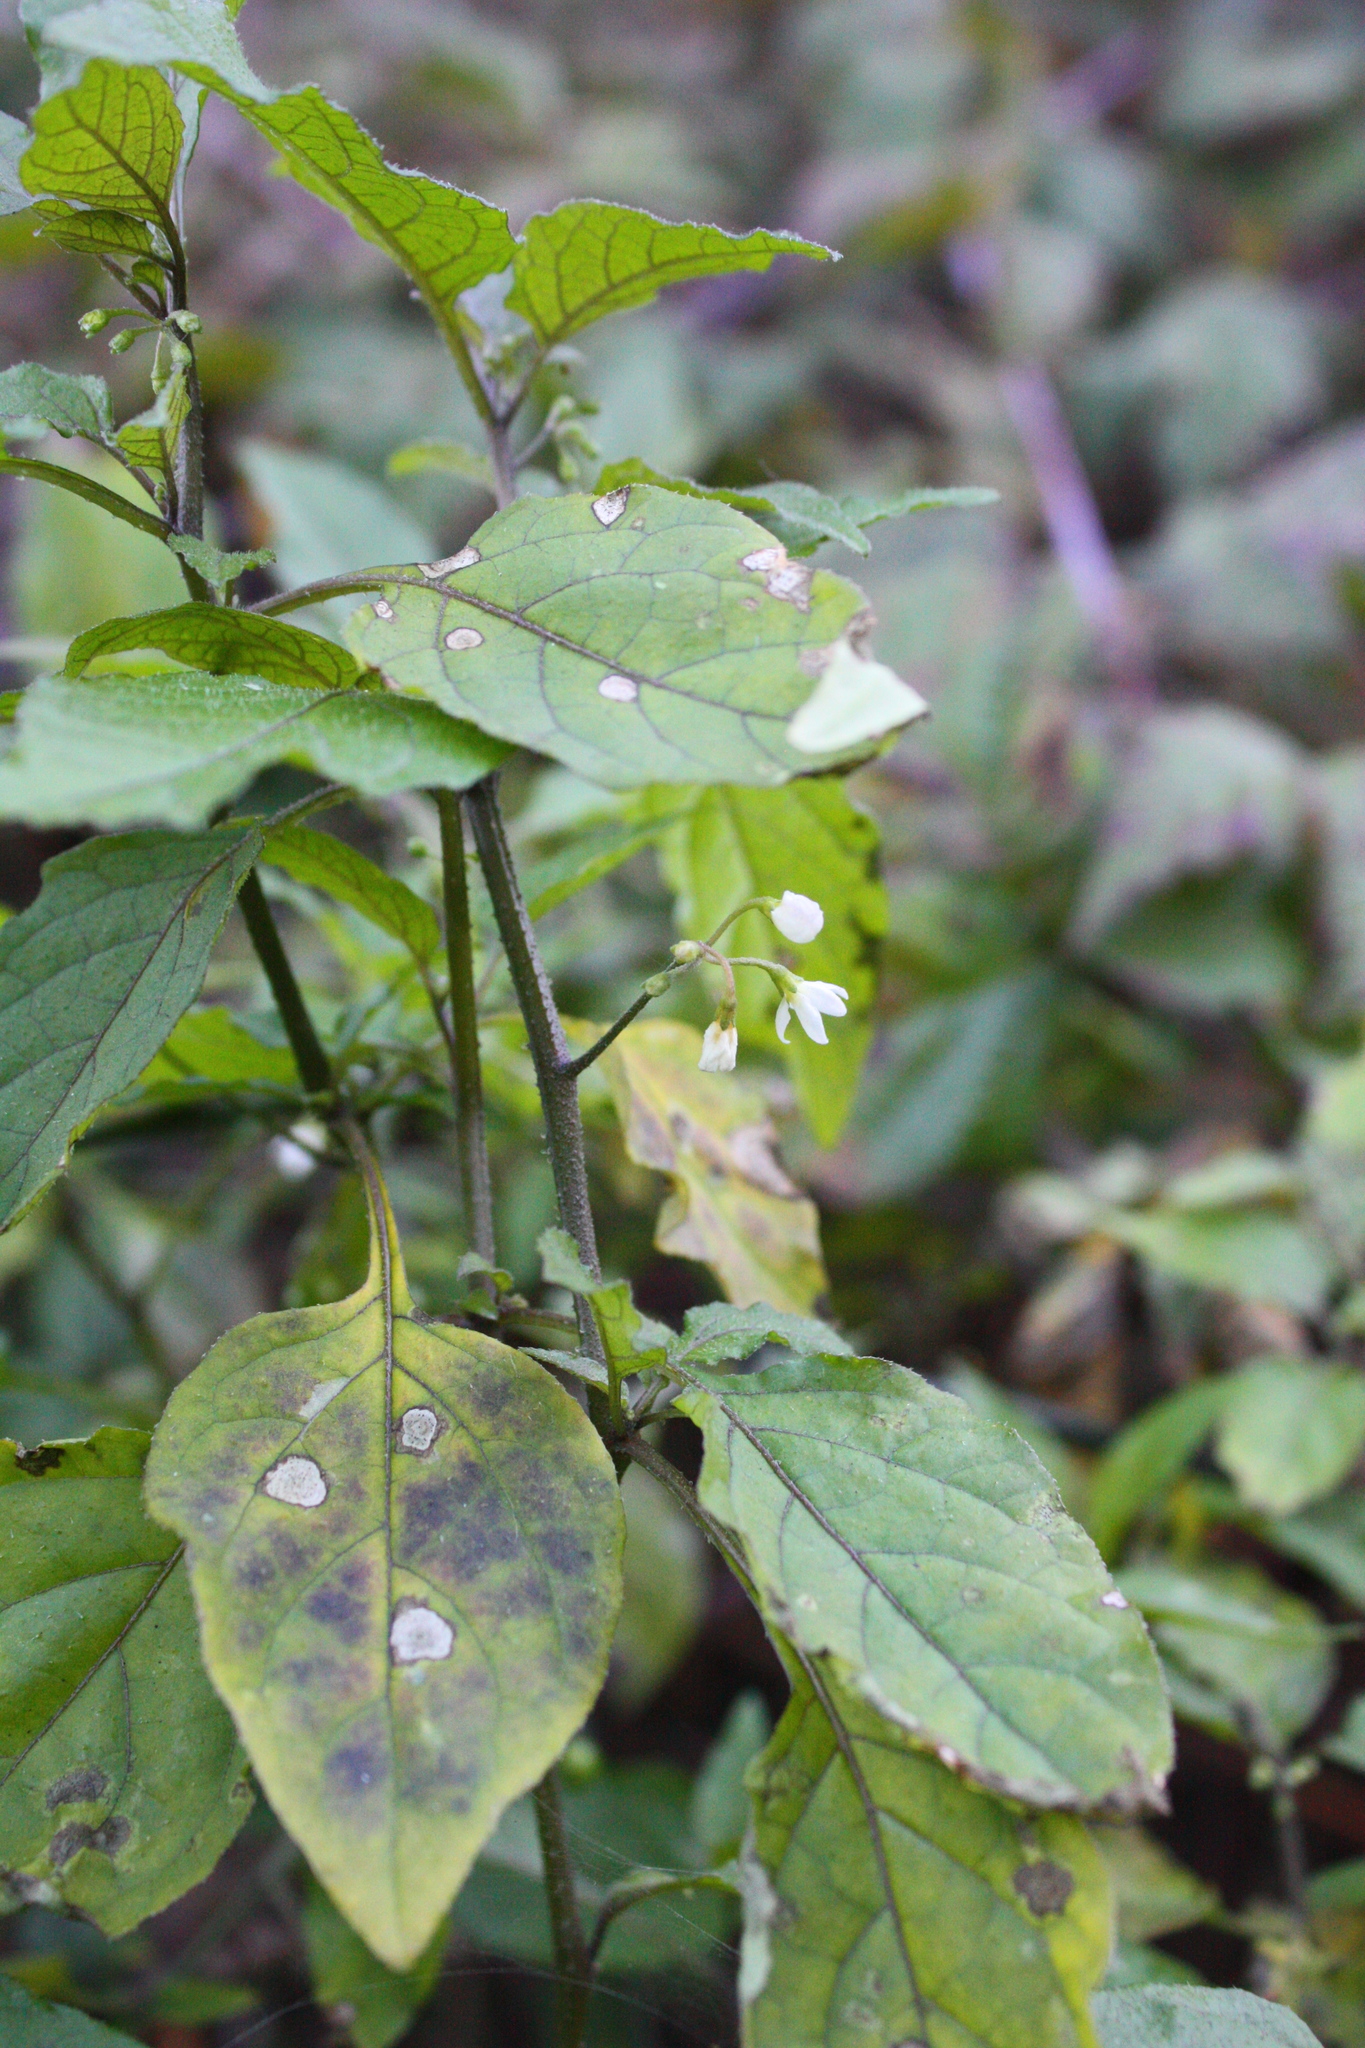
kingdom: Plantae
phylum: Tracheophyta
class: Magnoliopsida
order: Solanales
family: Solanaceae
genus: Solanum
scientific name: Solanum americanum
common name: American black nightshade
